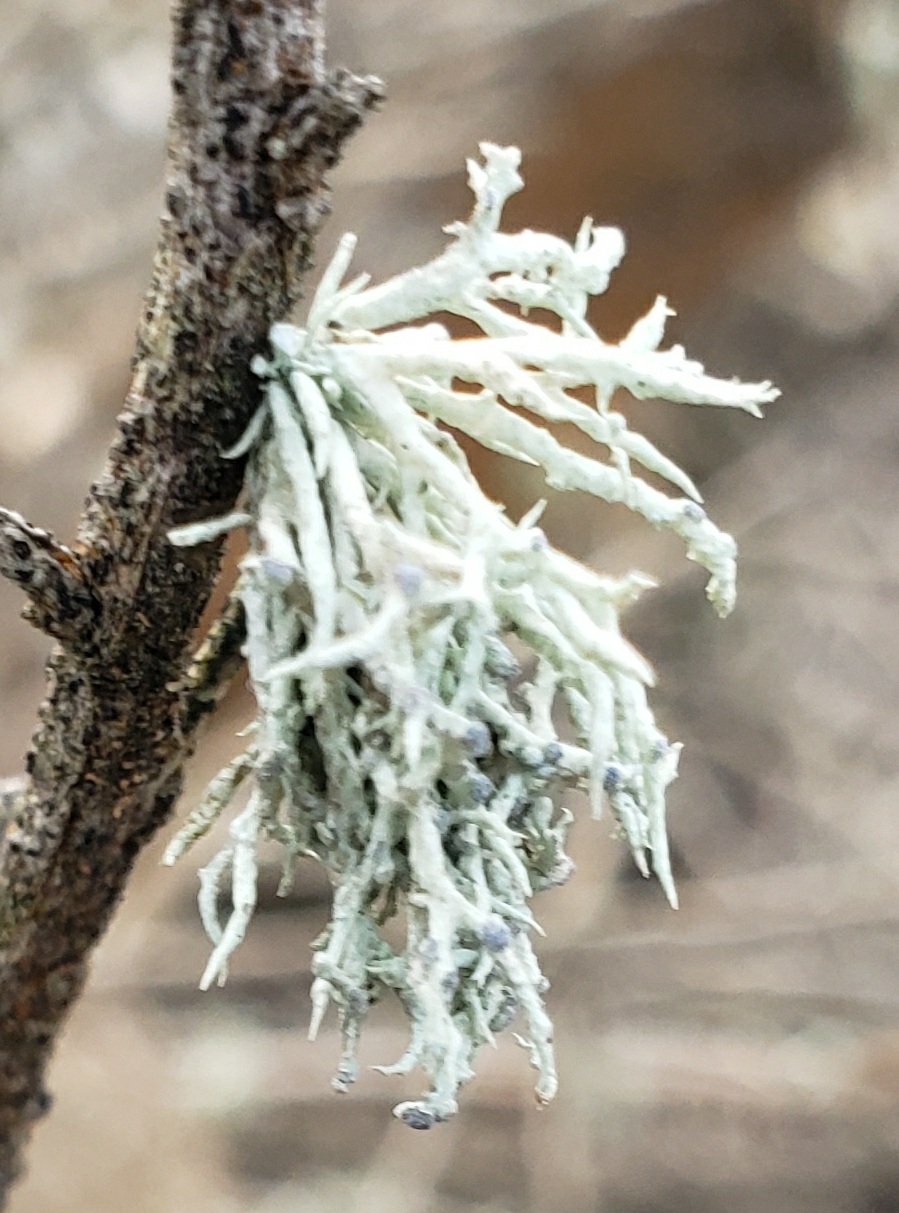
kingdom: Fungi
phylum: Ascomycota
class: Lecanoromycetes
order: Lecanorales
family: Ramalinaceae
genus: Niebla
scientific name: Niebla cephalota
